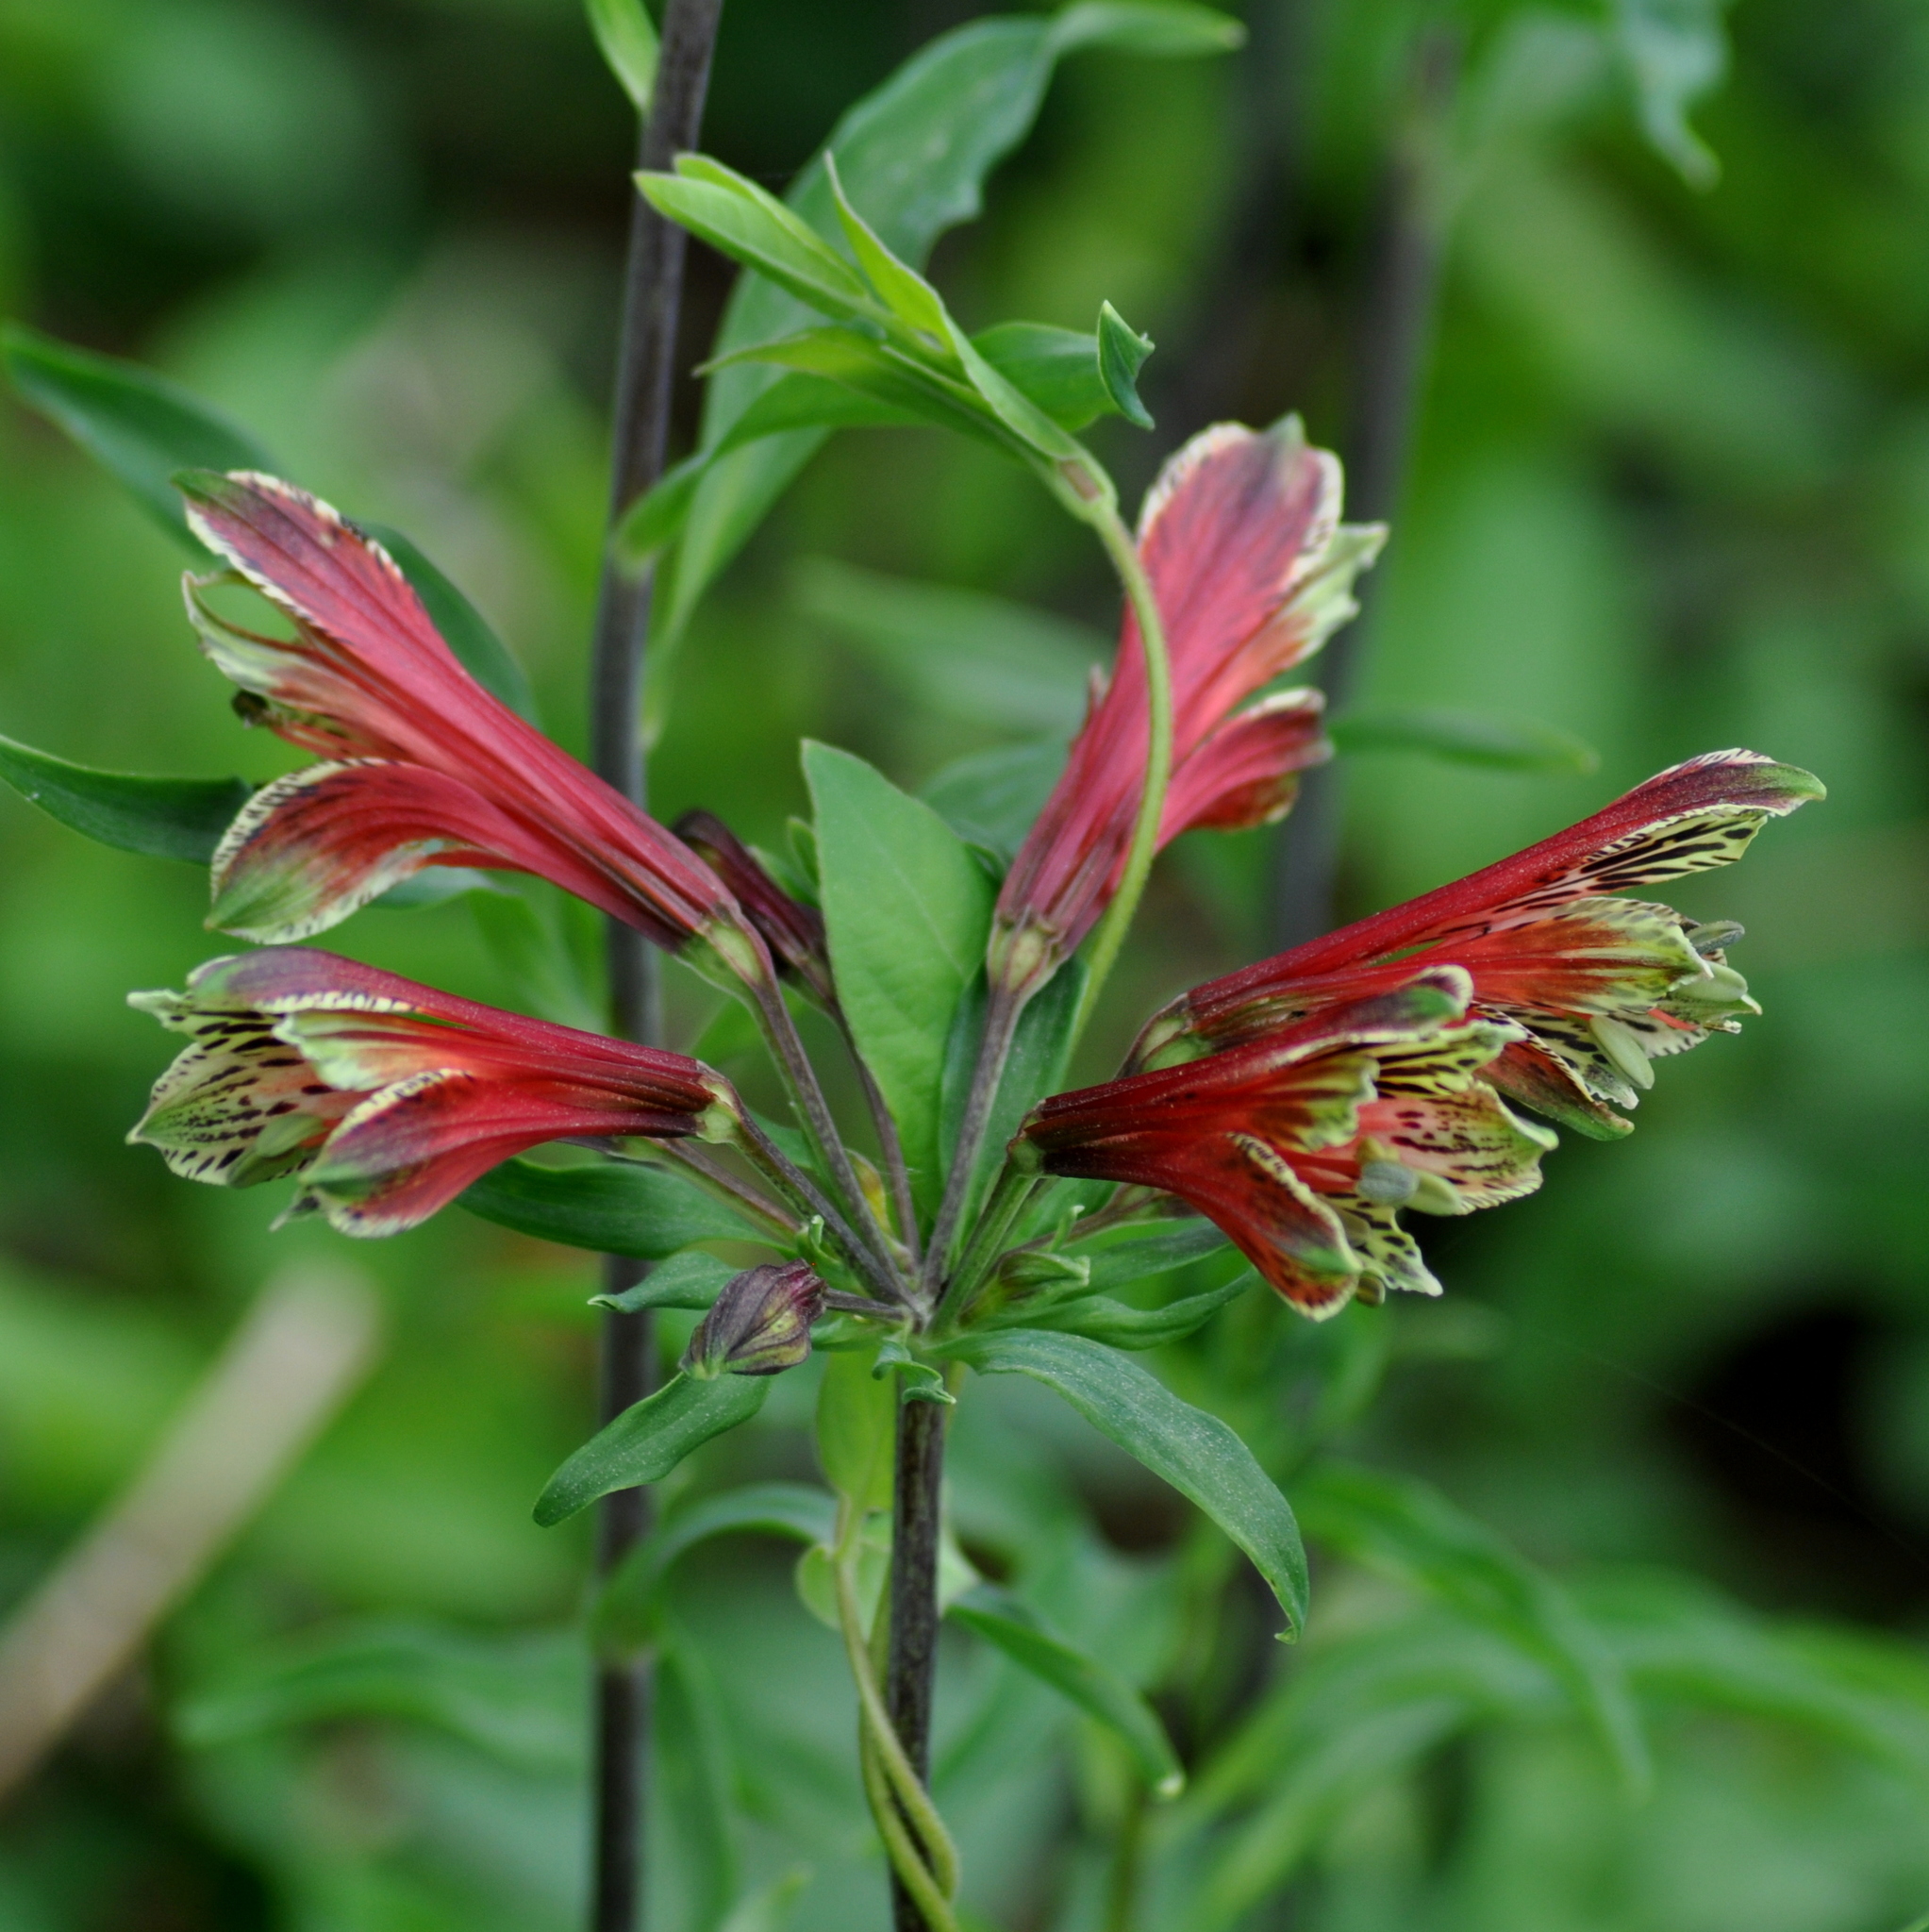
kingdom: Plantae
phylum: Tracheophyta
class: Liliopsida
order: Liliales
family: Alstroemeriaceae
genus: Alstroemeria
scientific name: Alstroemeria psittacina
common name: Peruvian-lily
